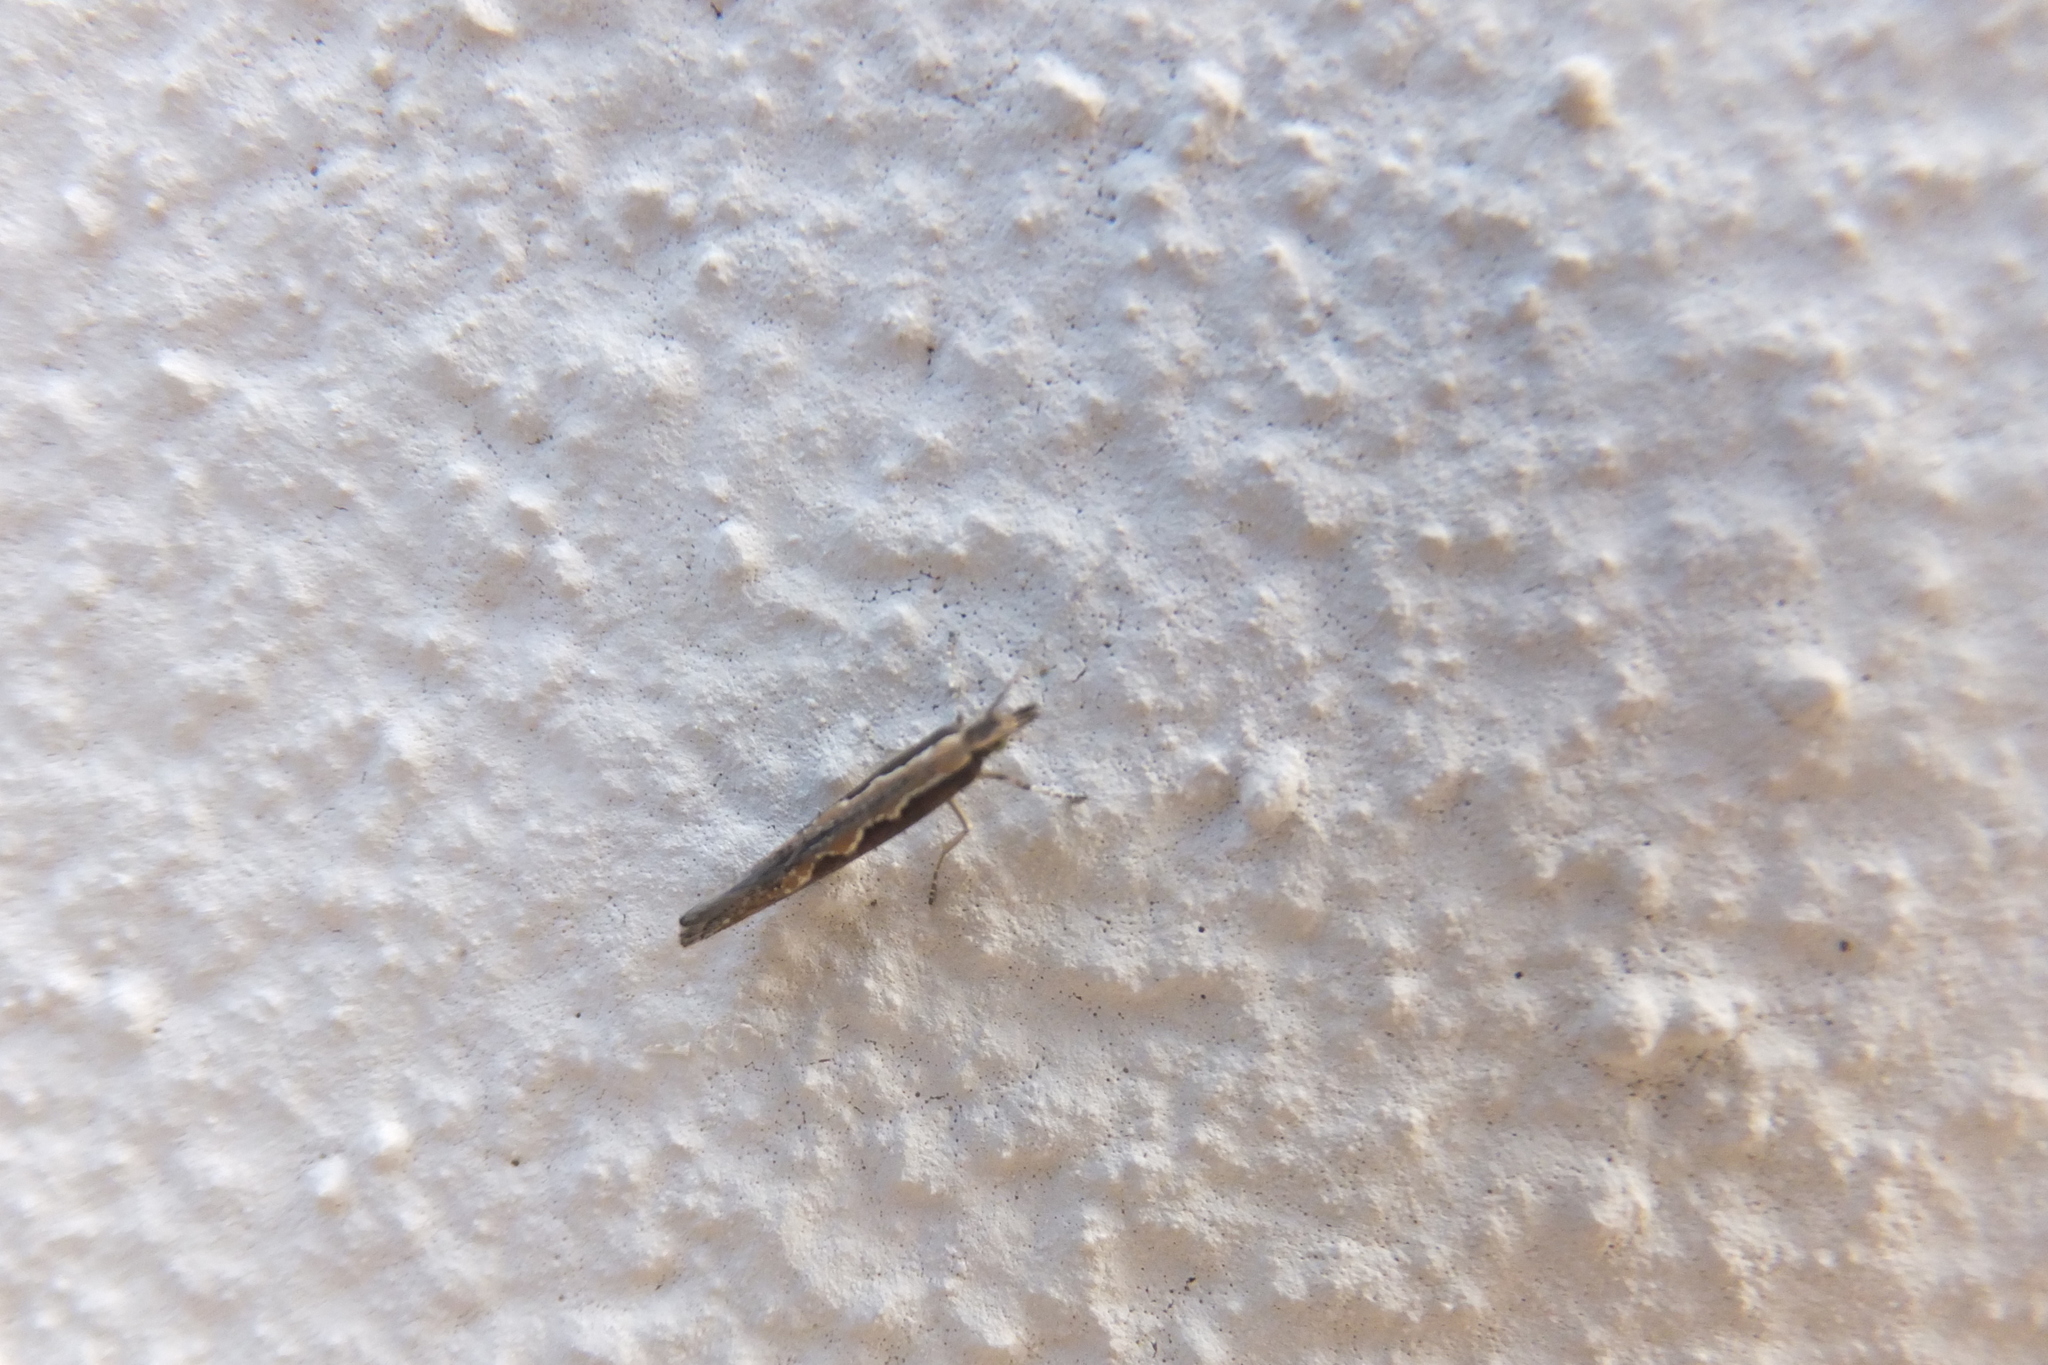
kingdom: Animalia
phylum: Arthropoda
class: Insecta
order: Lepidoptera
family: Plutellidae
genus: Plutella
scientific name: Plutella xylostella
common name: Diamond-back moth
